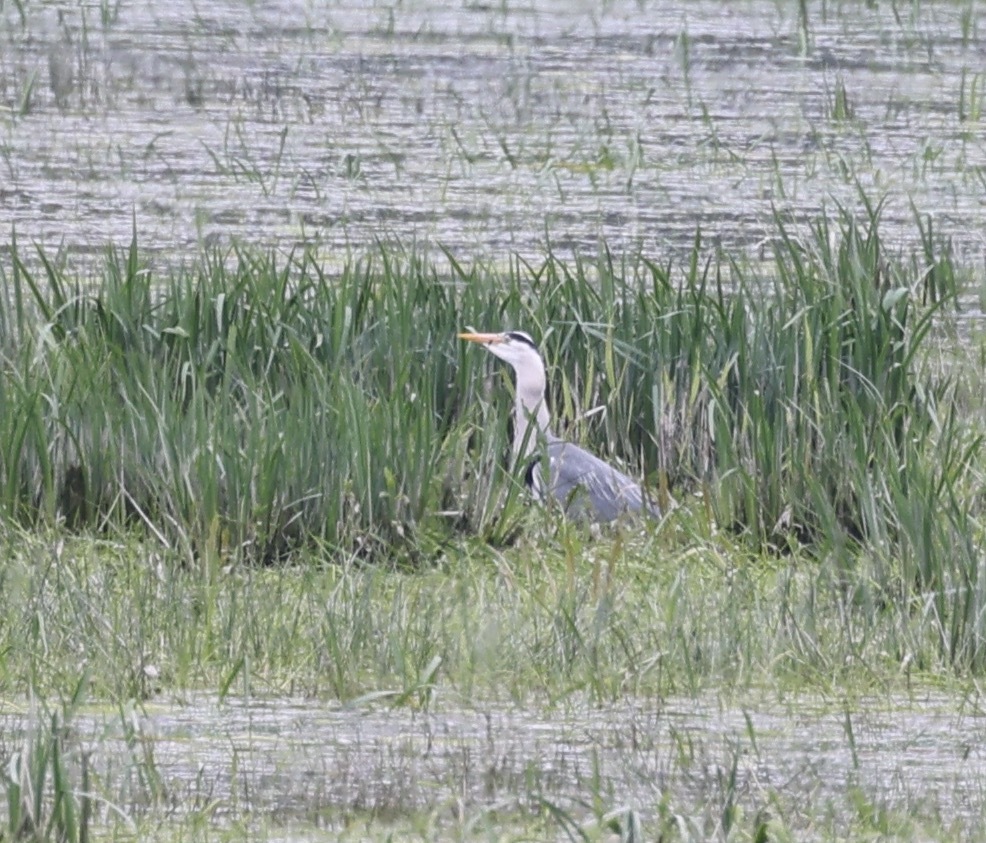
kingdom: Animalia
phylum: Chordata
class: Aves
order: Pelecaniformes
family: Ardeidae
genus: Ardea
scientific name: Ardea cinerea
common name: Grey heron
